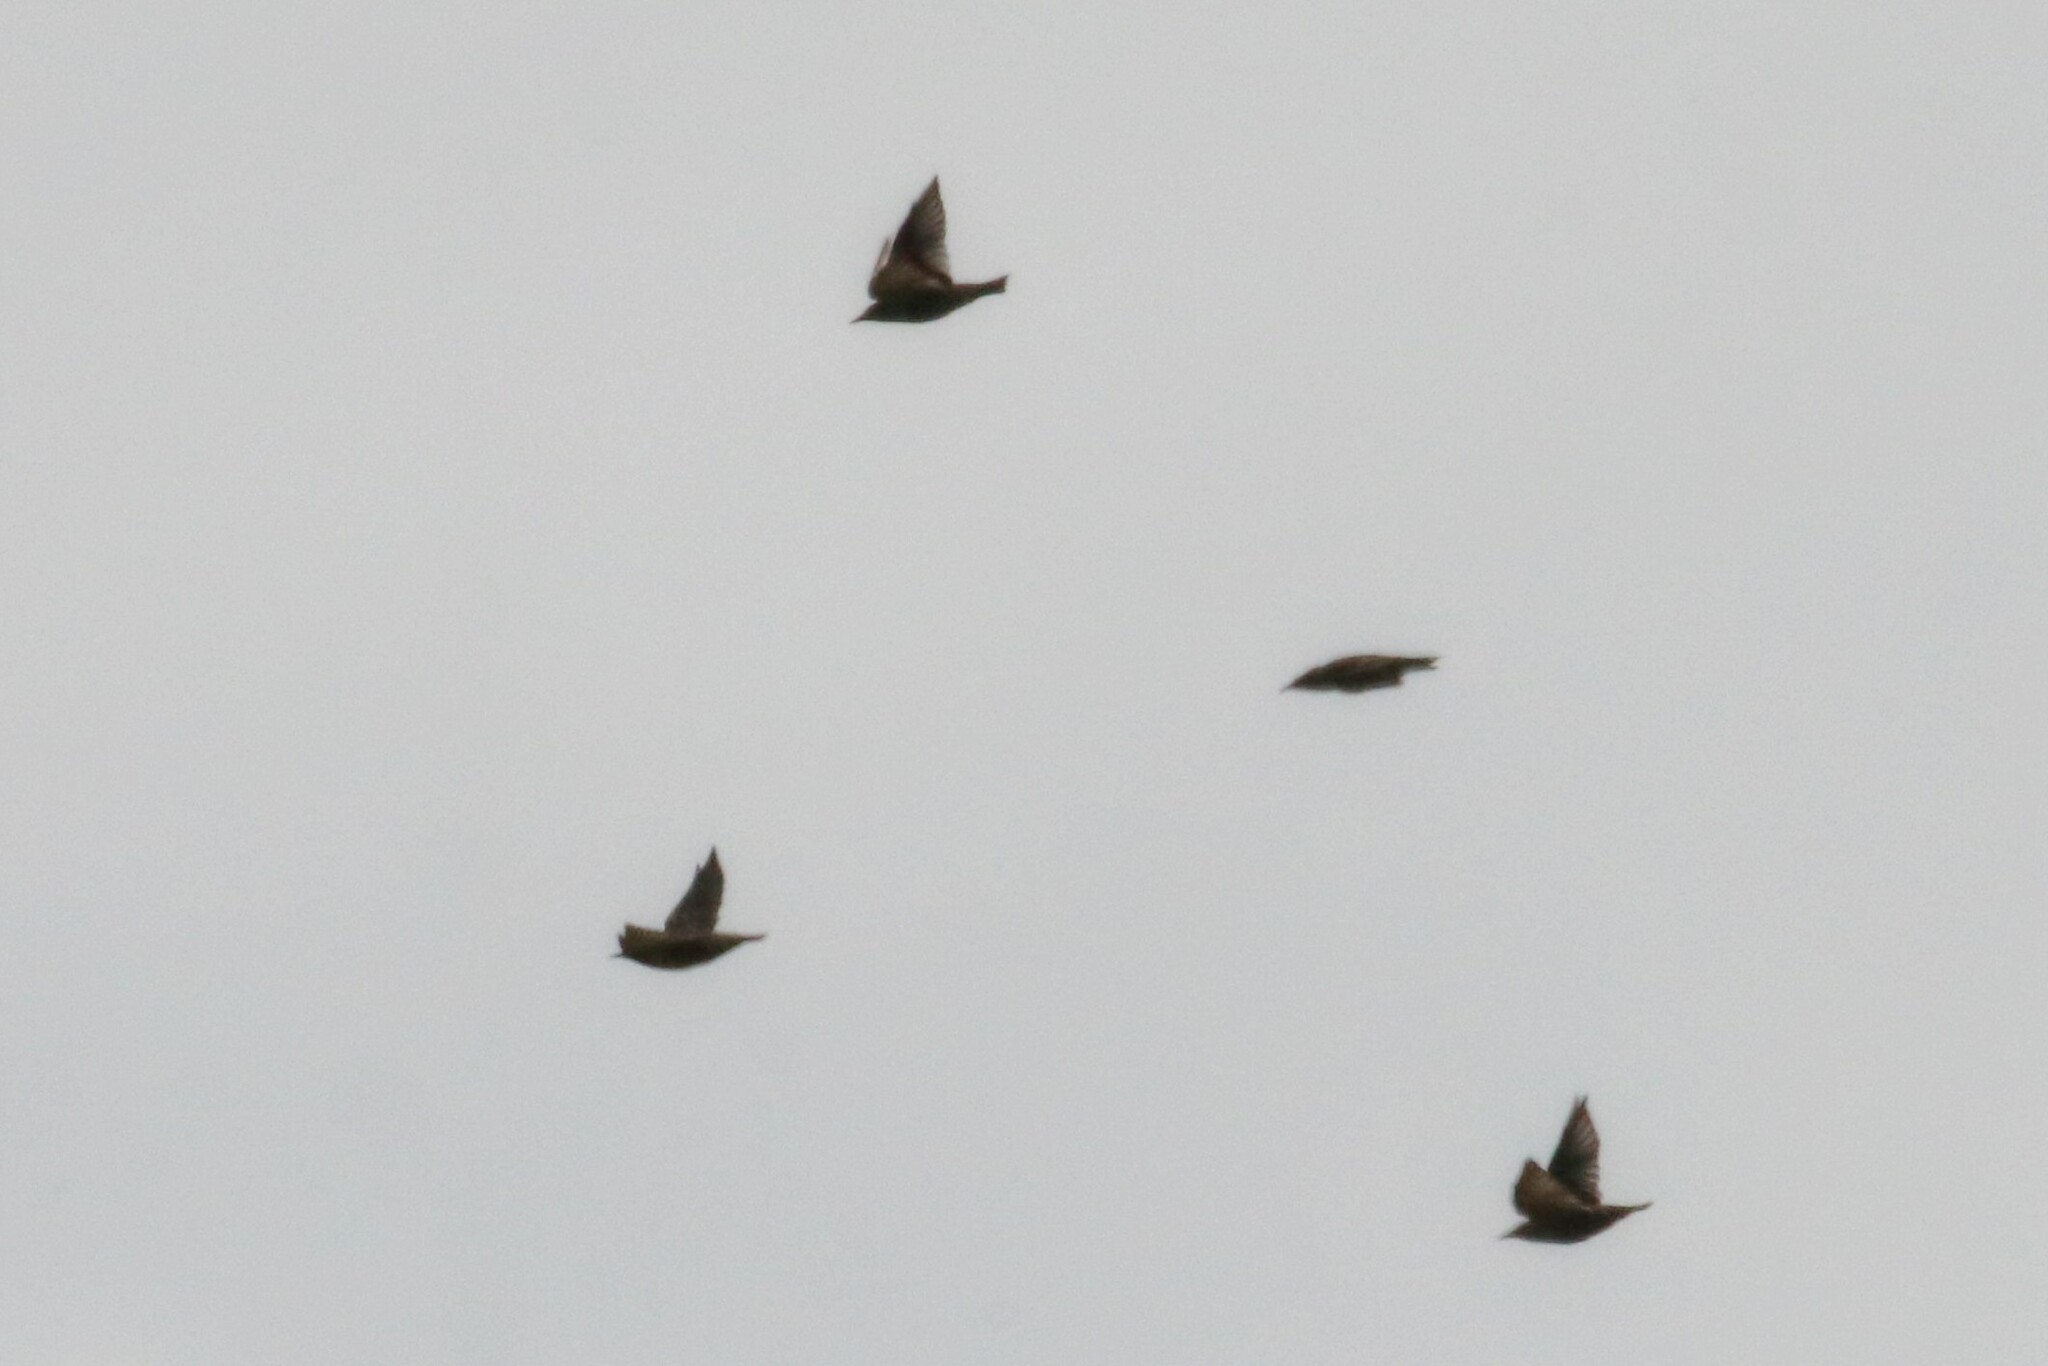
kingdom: Animalia
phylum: Chordata
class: Aves
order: Passeriformes
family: Sturnidae
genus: Sturnus
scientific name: Sturnus vulgaris
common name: Common starling
